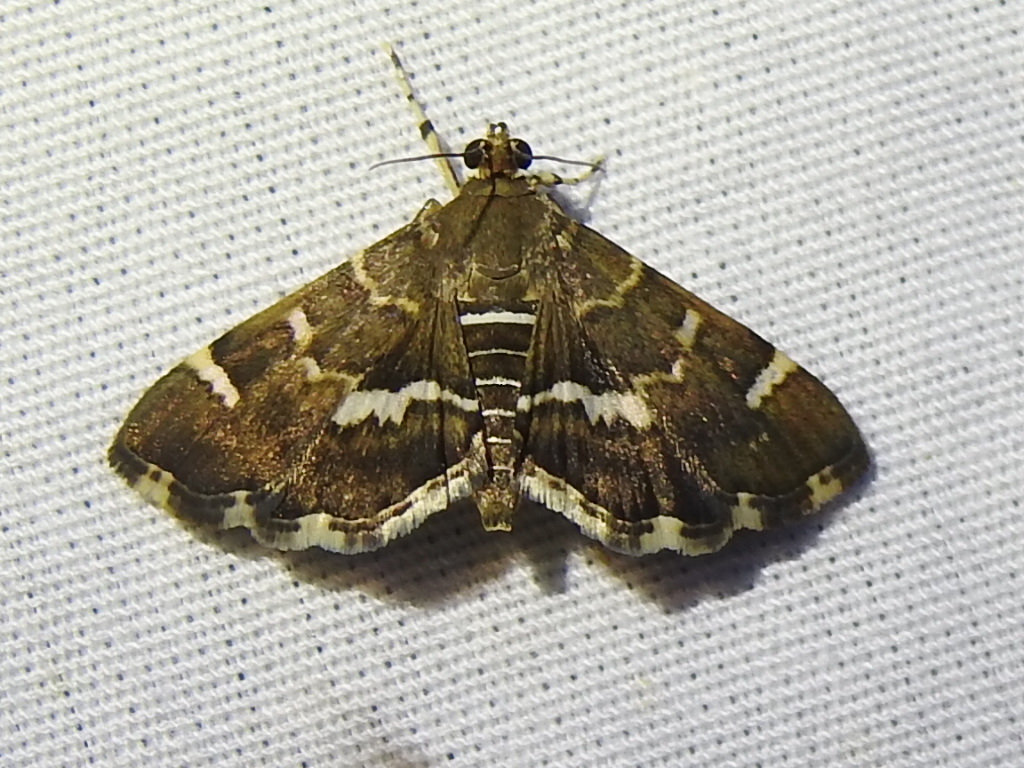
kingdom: Animalia
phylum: Arthropoda
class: Insecta
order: Lepidoptera
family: Crambidae
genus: Hymenia
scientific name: Hymenia perspectalis
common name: Spotted beet webworm
